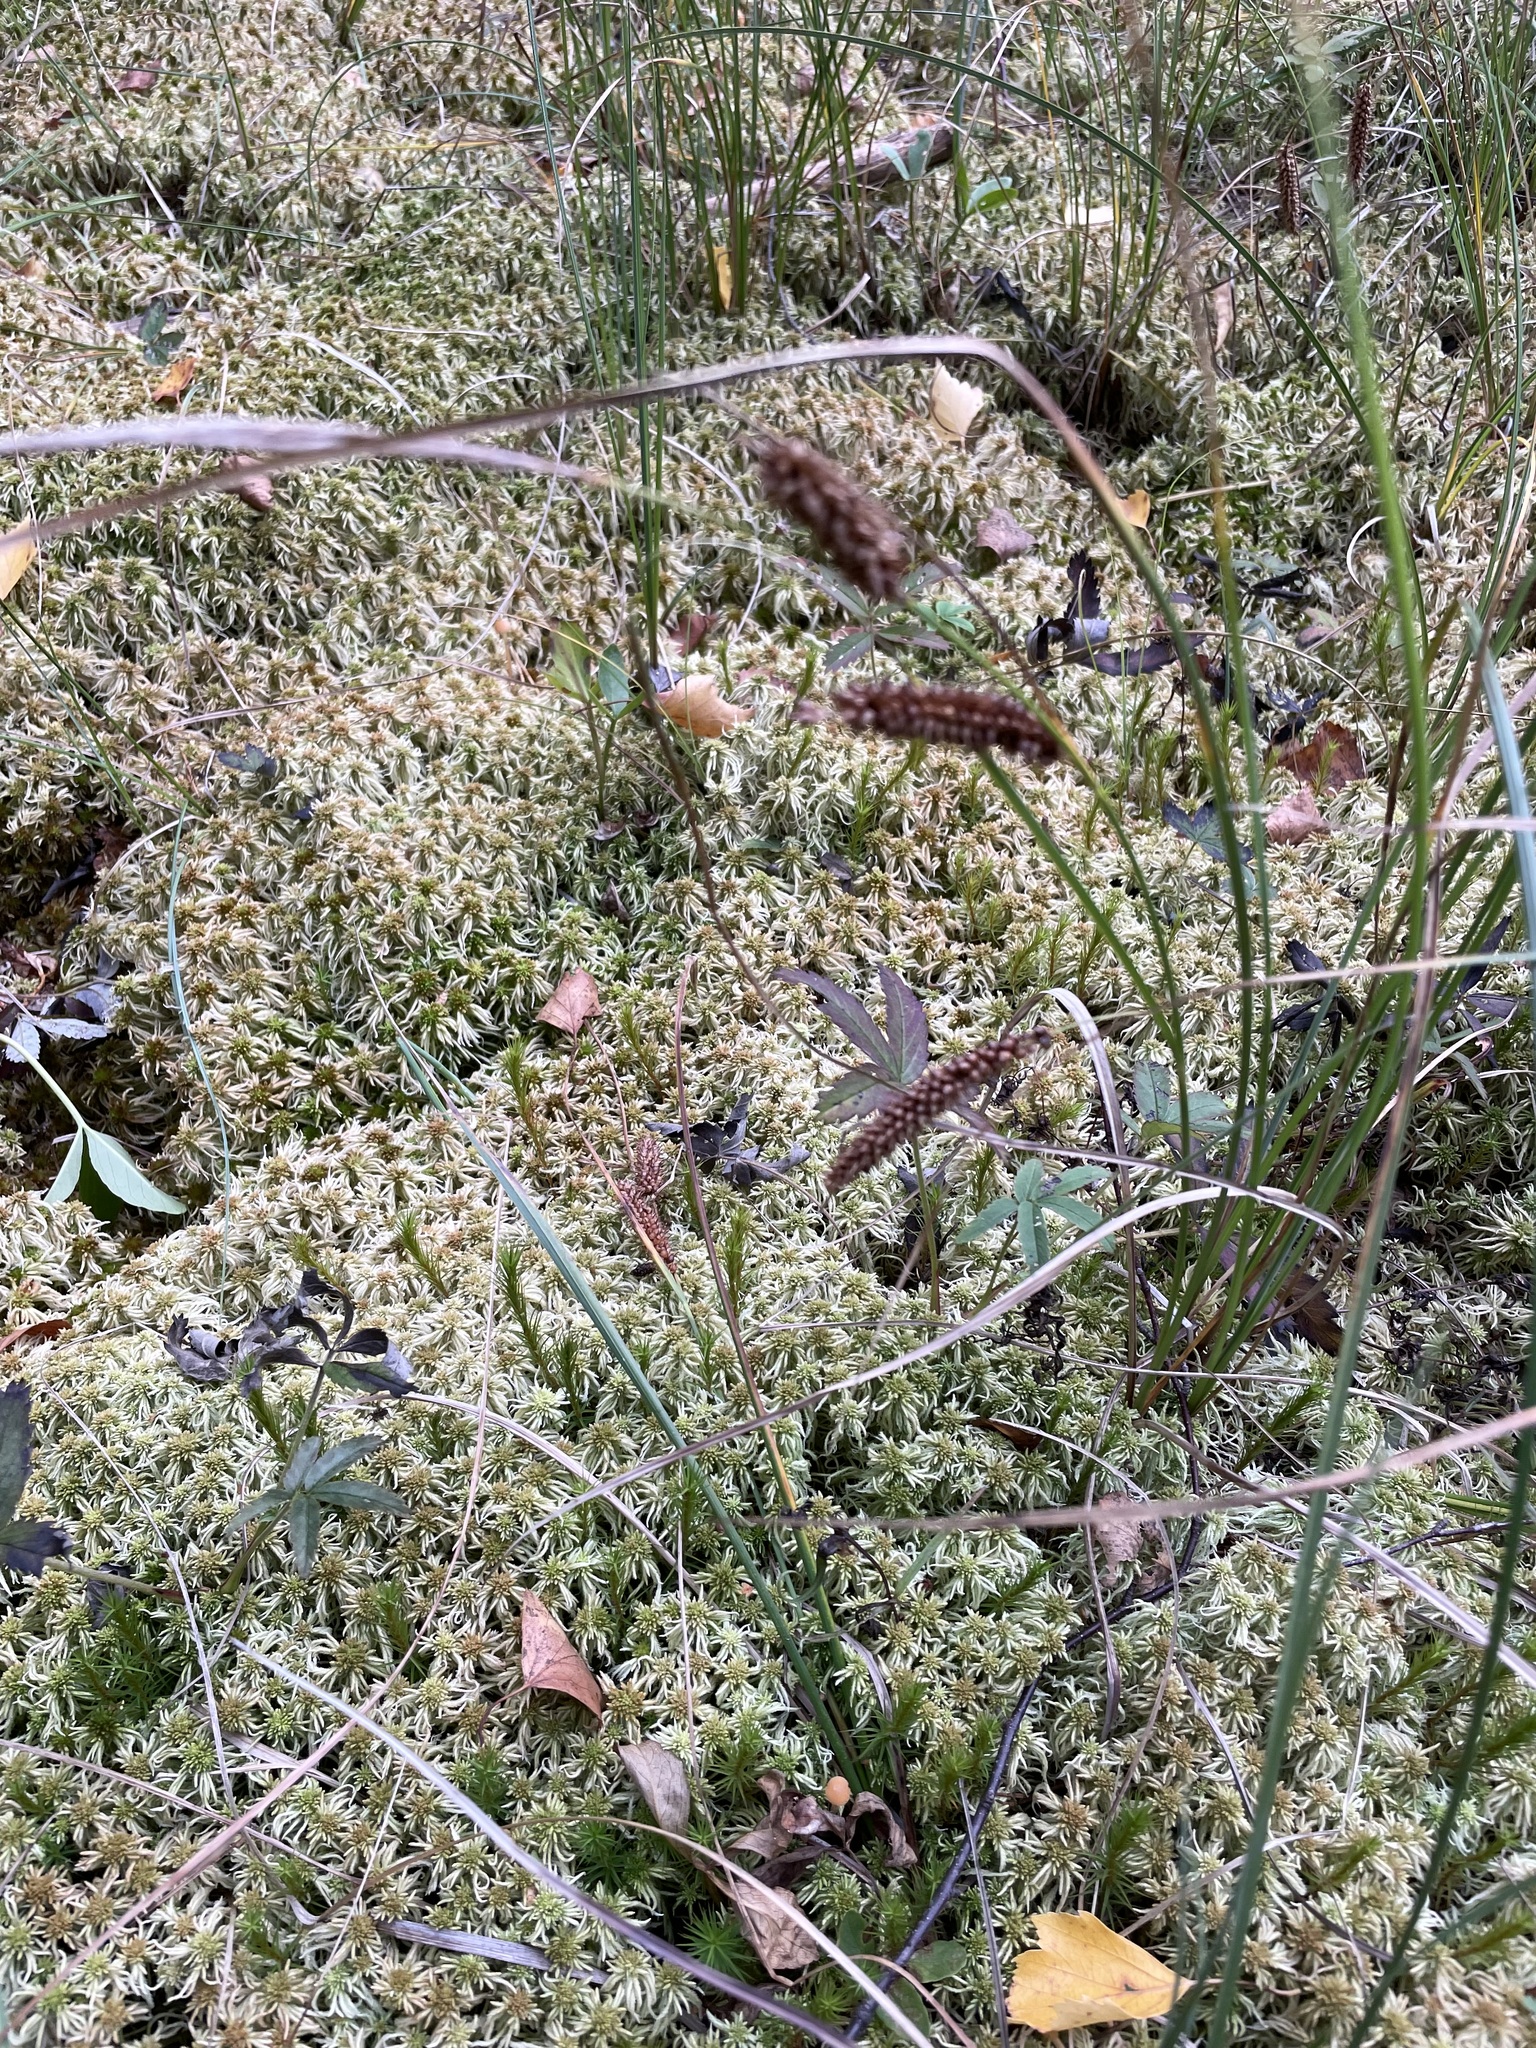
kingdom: Plantae
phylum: Tracheophyta
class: Liliopsida
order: Poales
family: Cyperaceae
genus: Carex
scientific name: Carex rostrata
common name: Bottle sedge
